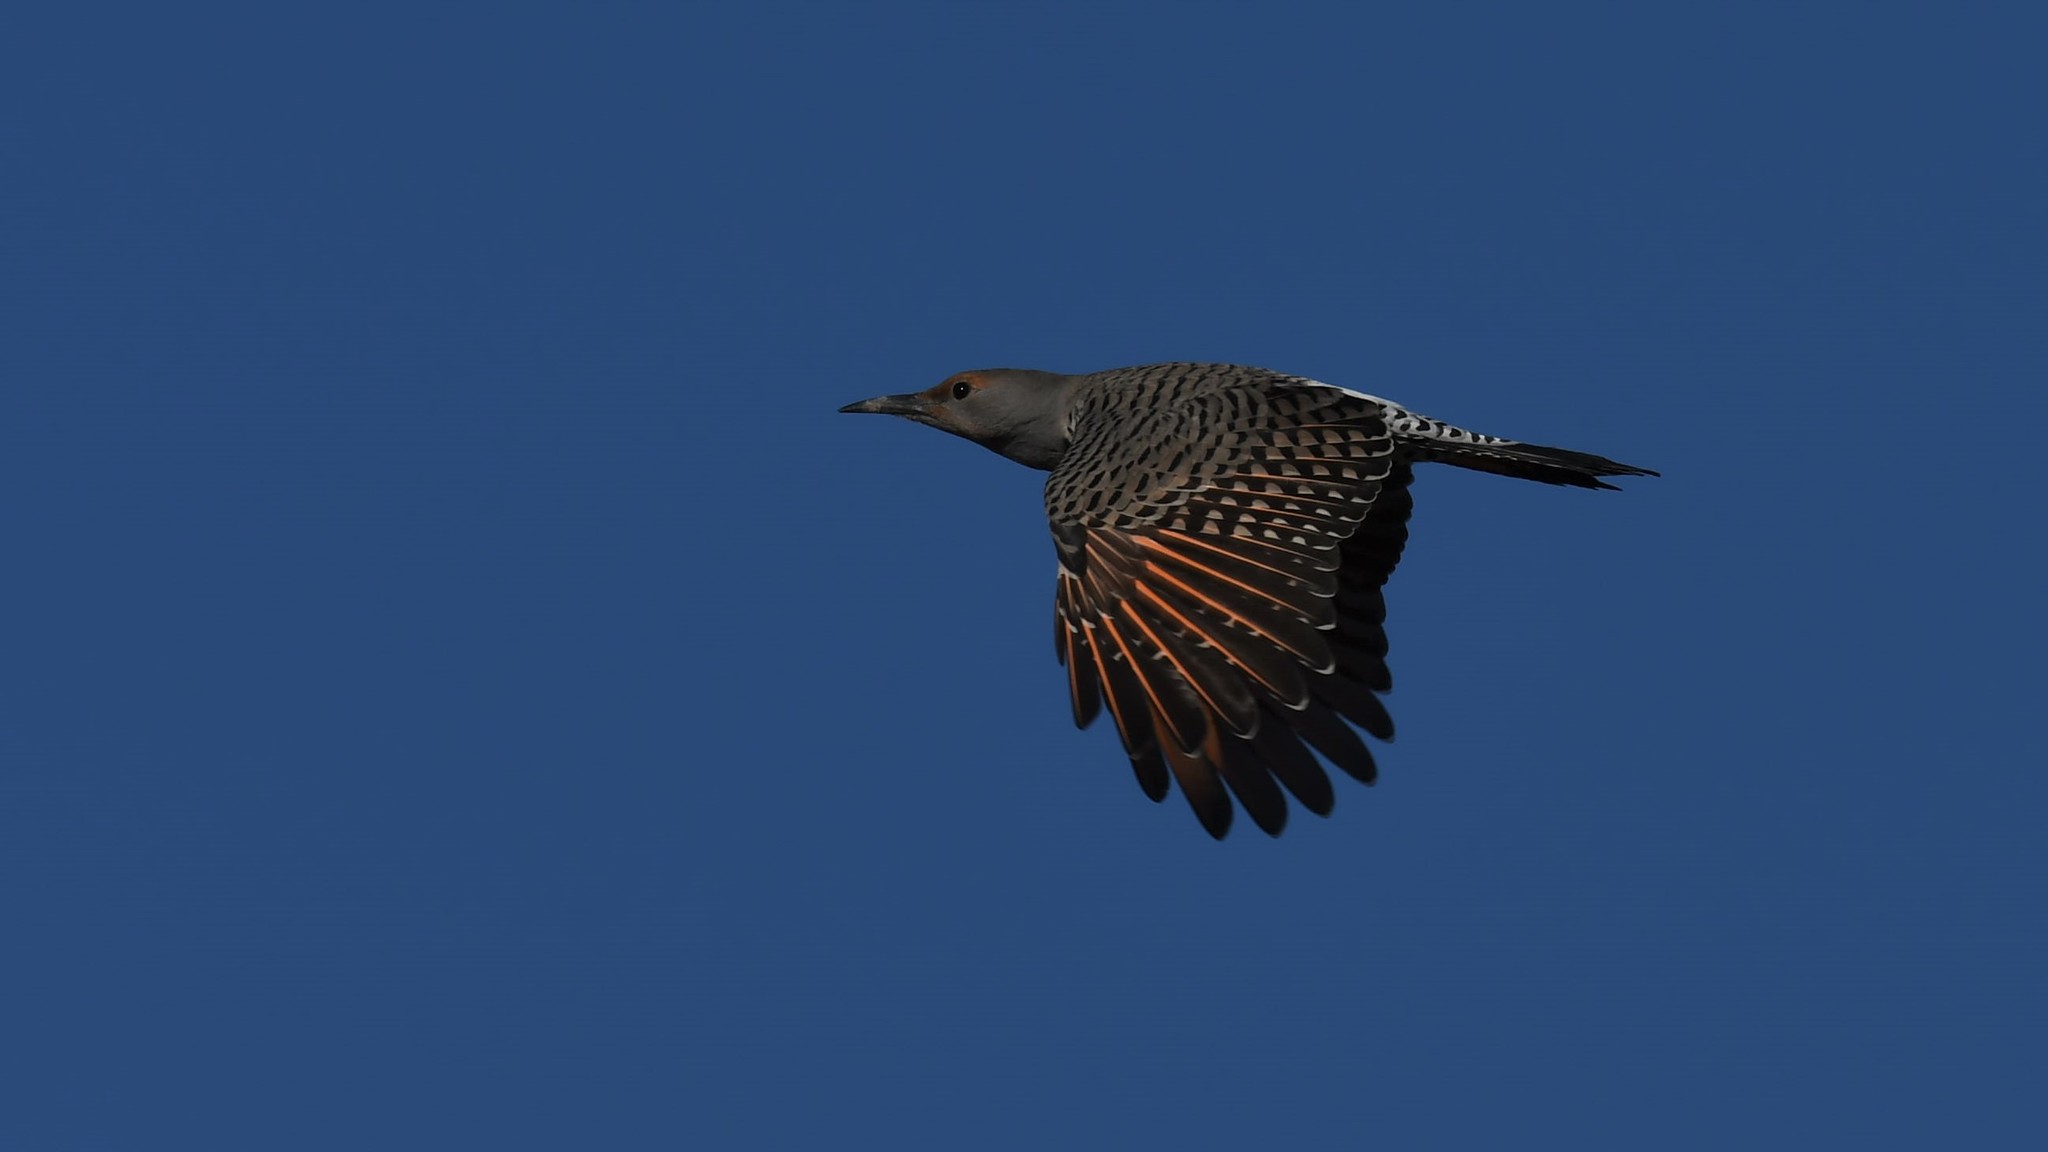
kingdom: Animalia
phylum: Chordata
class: Aves
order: Piciformes
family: Picidae
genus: Colaptes
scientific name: Colaptes auratus
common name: Northern flicker
